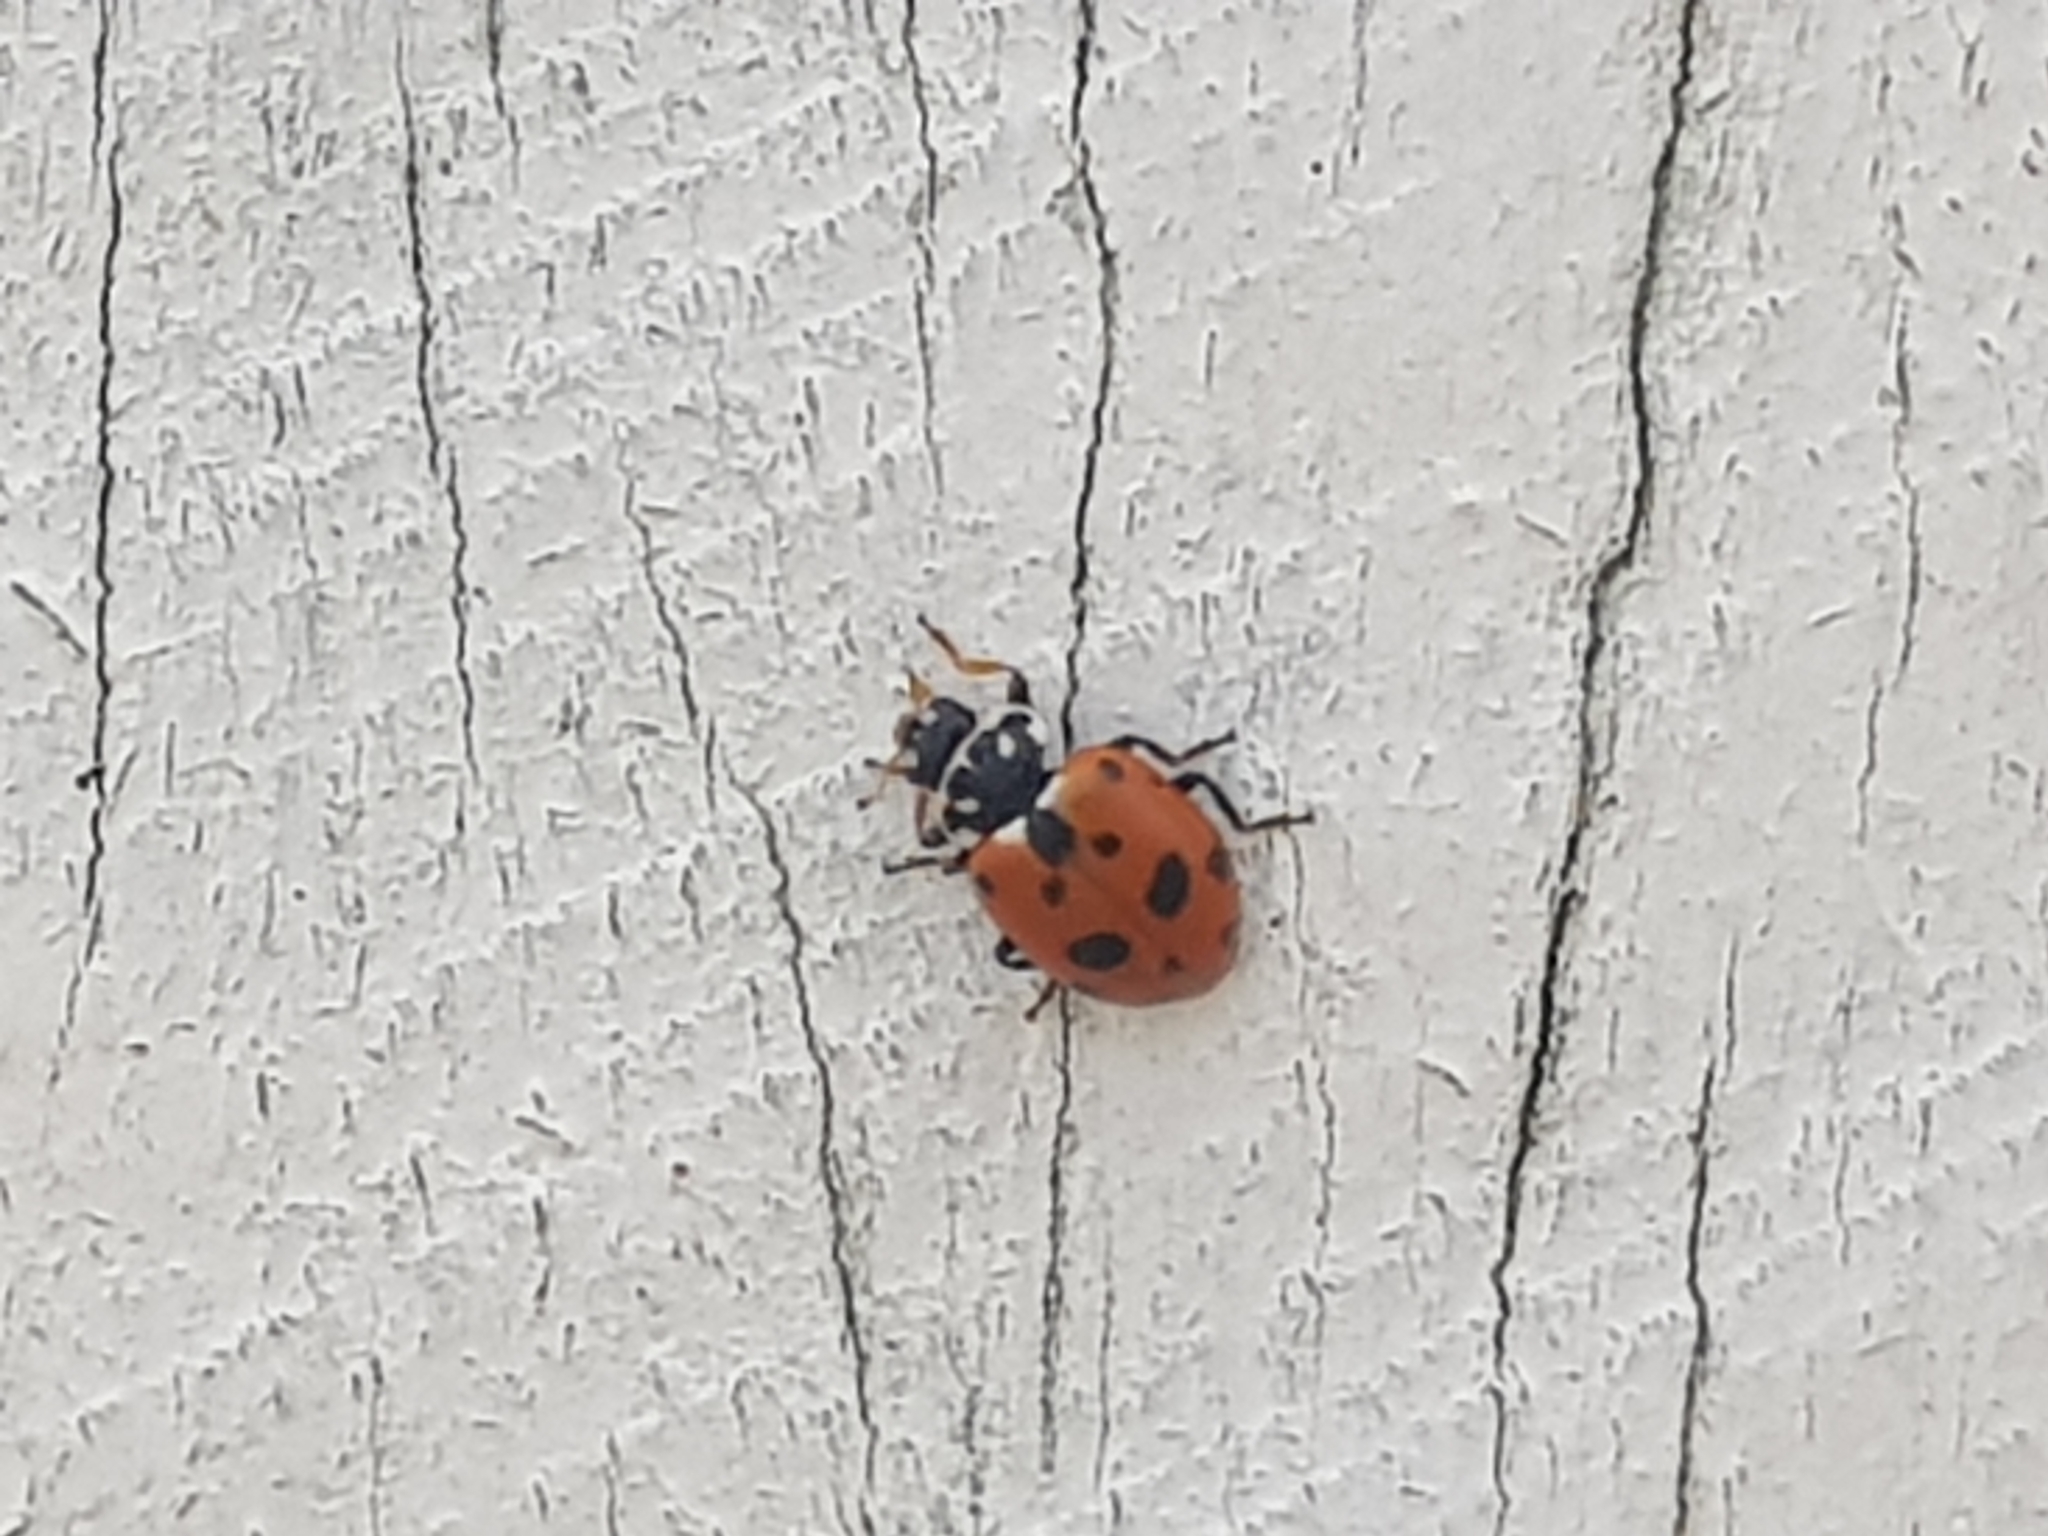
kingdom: Animalia
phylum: Arthropoda
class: Insecta
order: Coleoptera
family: Coccinellidae
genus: Hippodamia
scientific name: Hippodamia variegata
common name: Ladybird beetle
